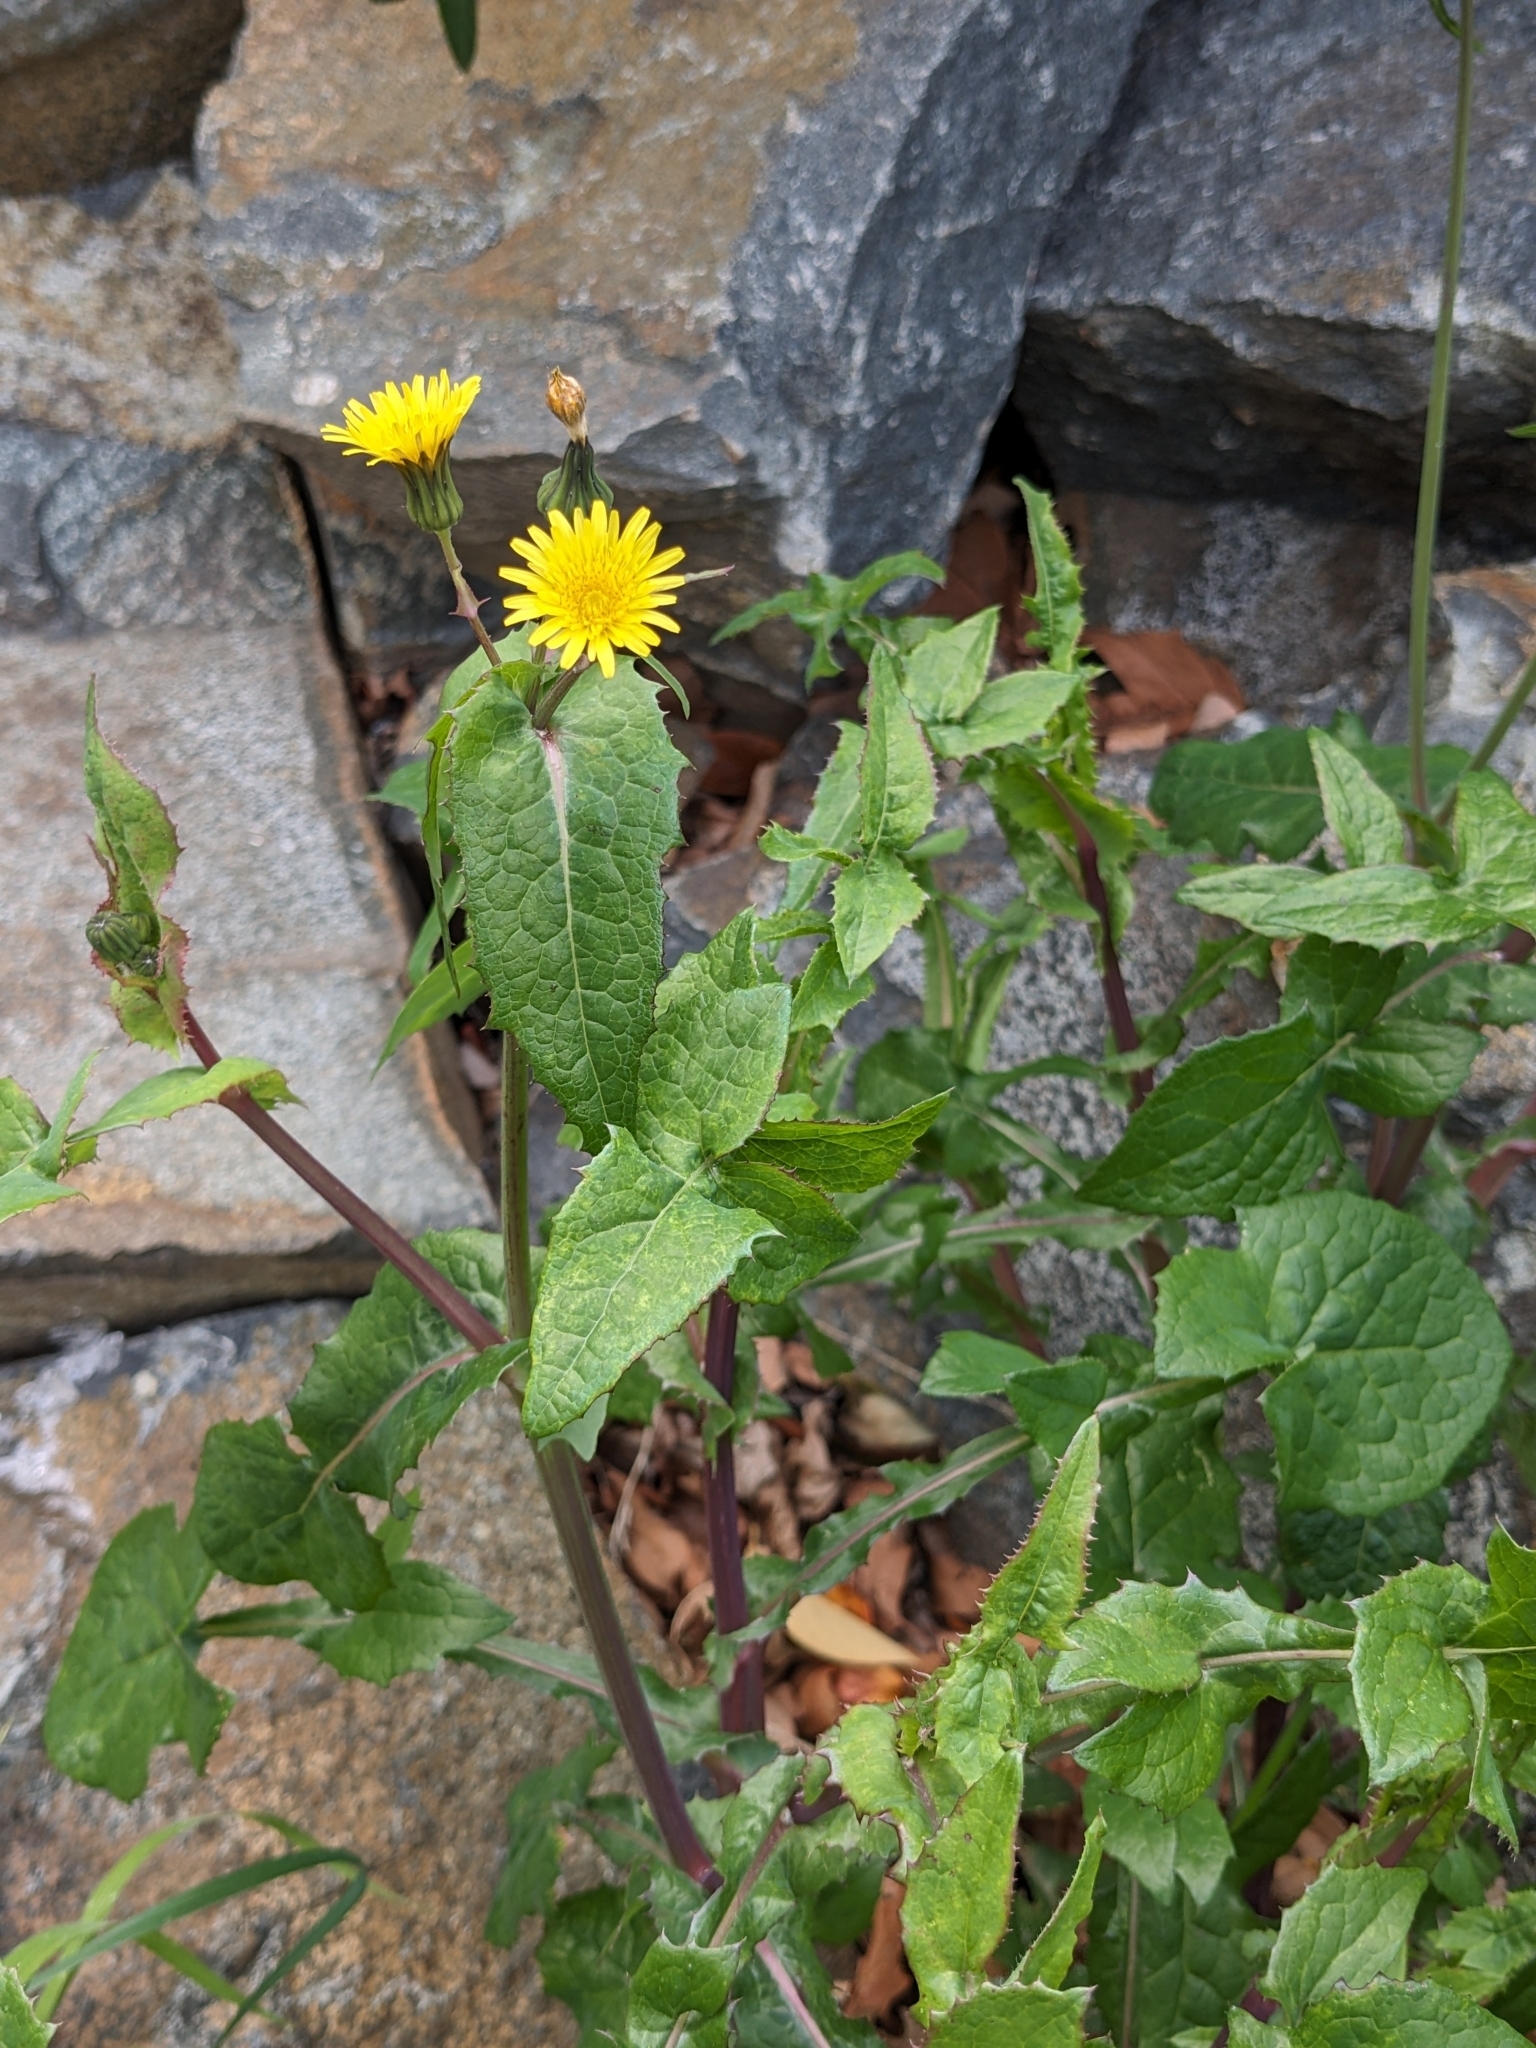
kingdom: Plantae
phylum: Tracheophyta
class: Magnoliopsida
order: Asterales
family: Asteraceae
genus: Sonchus
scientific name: Sonchus oleraceus
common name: Common sowthistle
